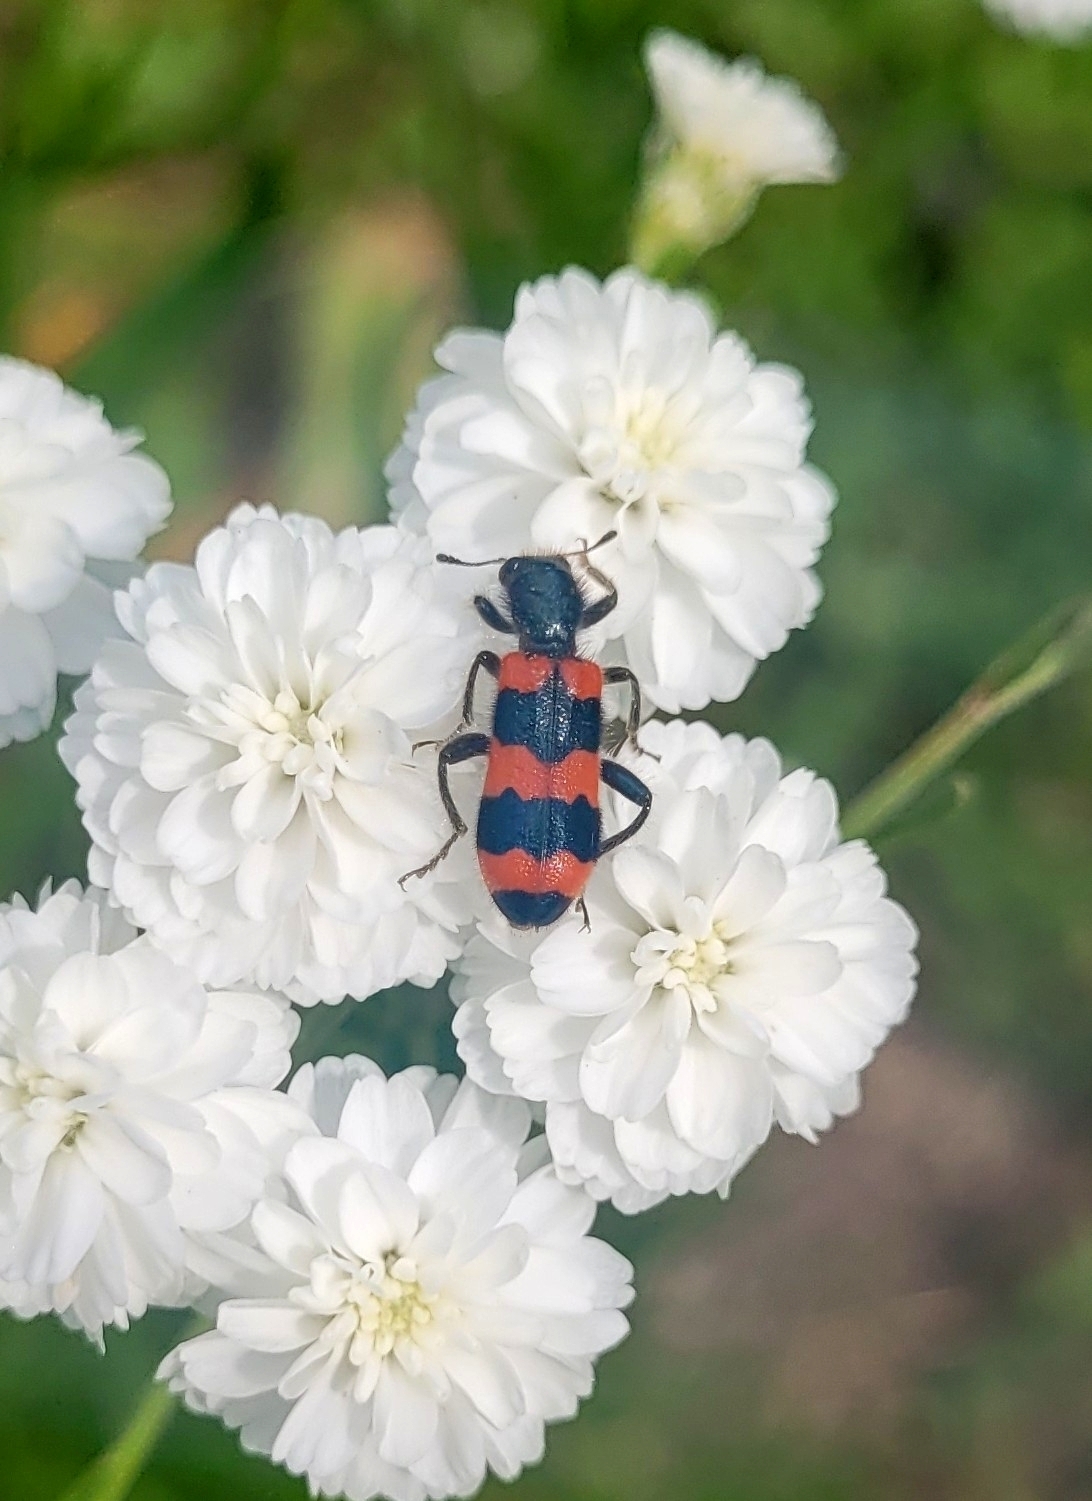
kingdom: Animalia
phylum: Arthropoda
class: Insecta
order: Coleoptera
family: Cleridae
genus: Trichodes
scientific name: Trichodes apiarius
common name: Bee-eating beetle
